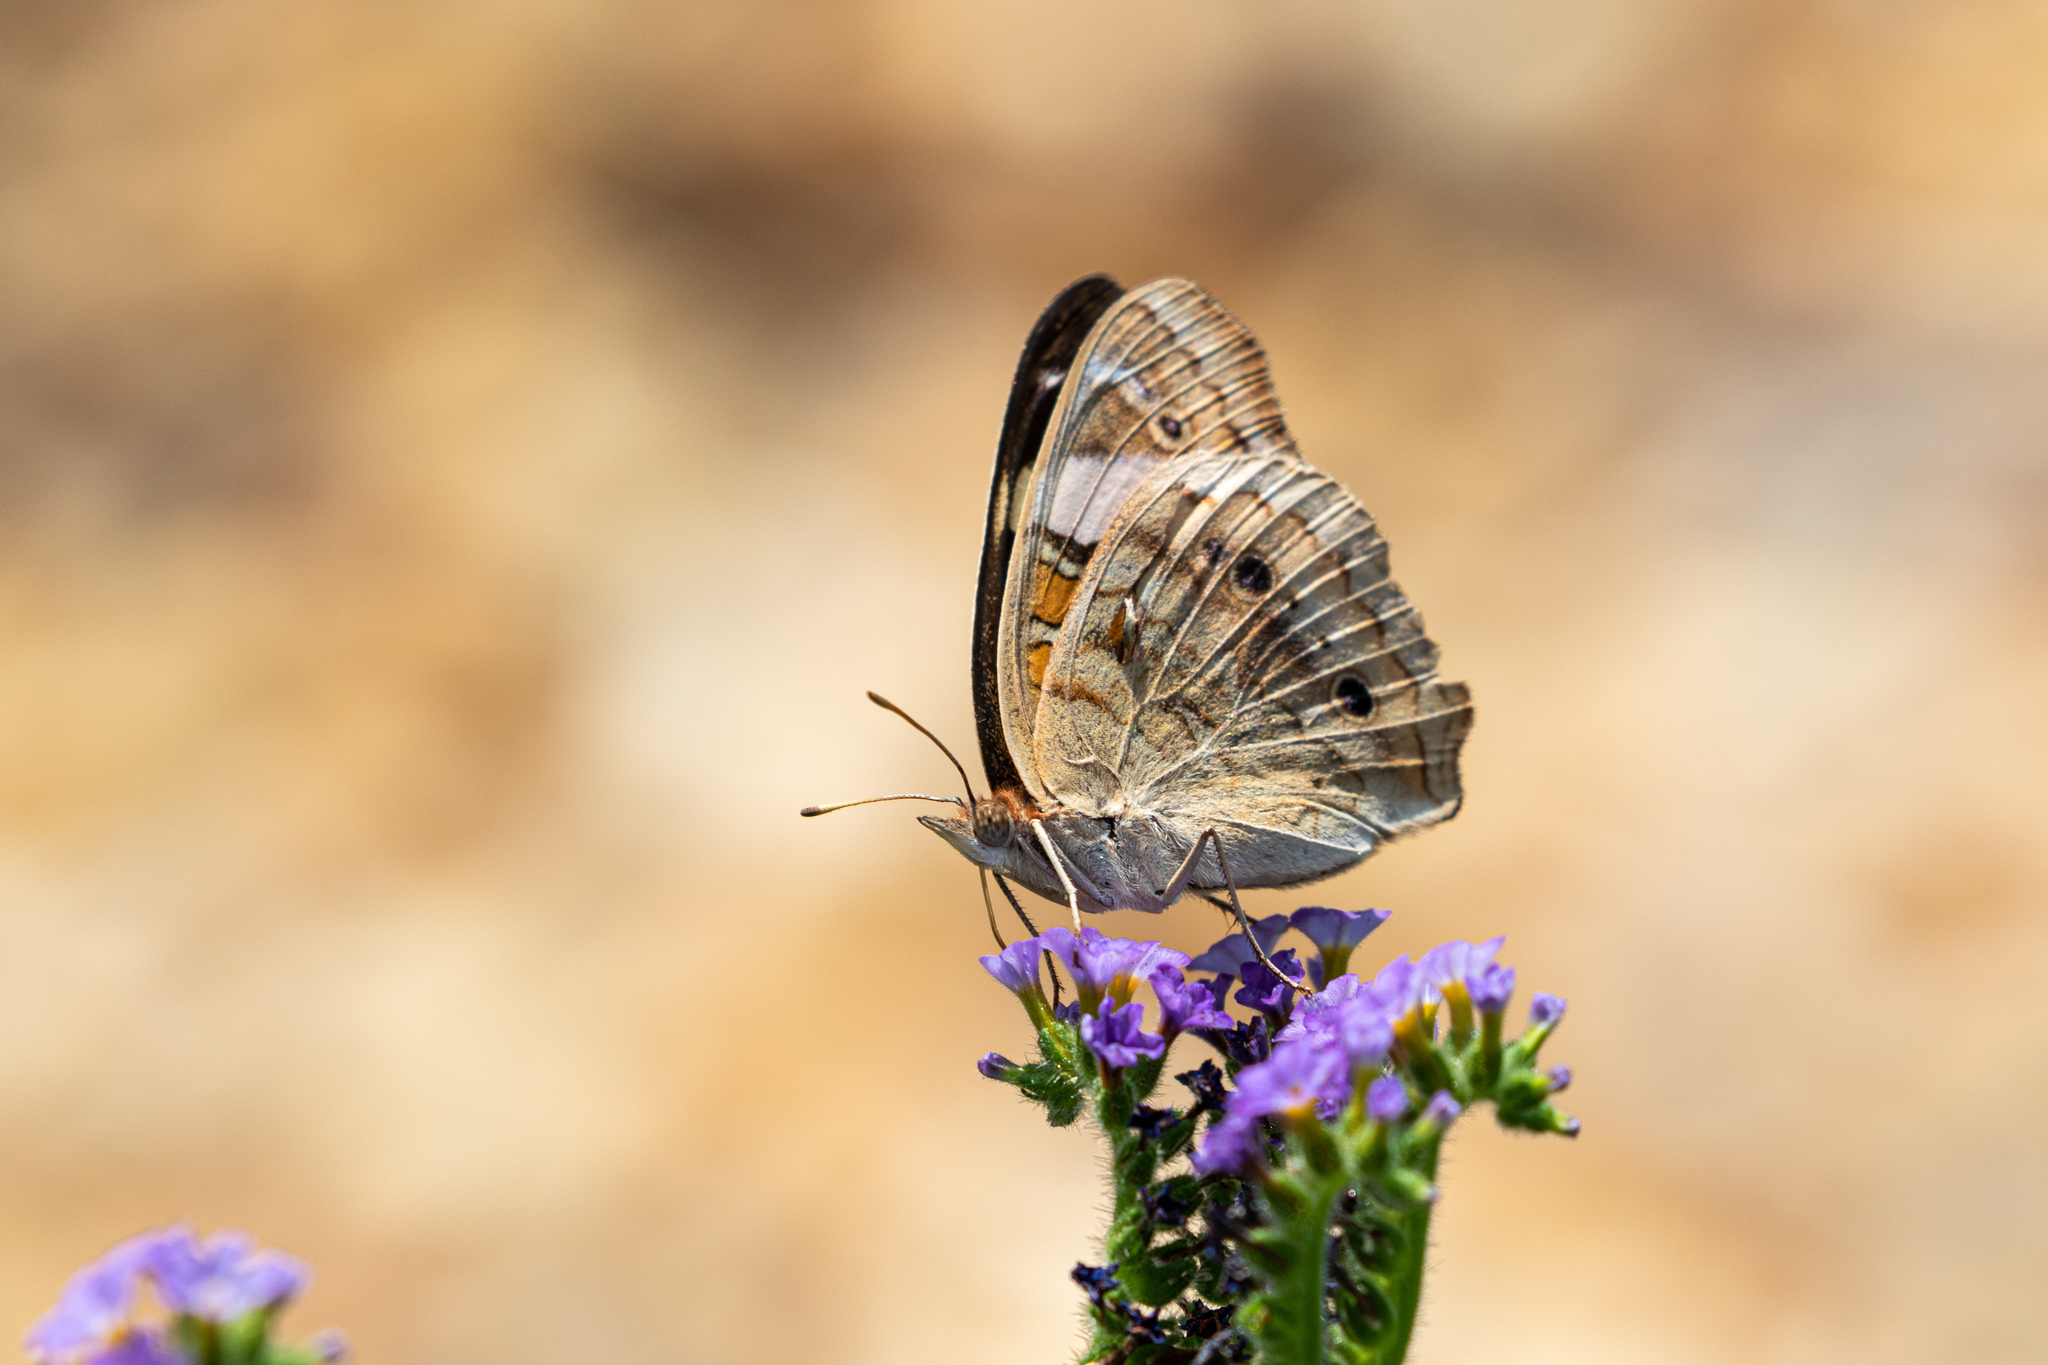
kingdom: Animalia
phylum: Arthropoda
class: Insecta
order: Lepidoptera
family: Nymphalidae
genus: Junonia
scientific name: Junonia coenia
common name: Common buckeye
